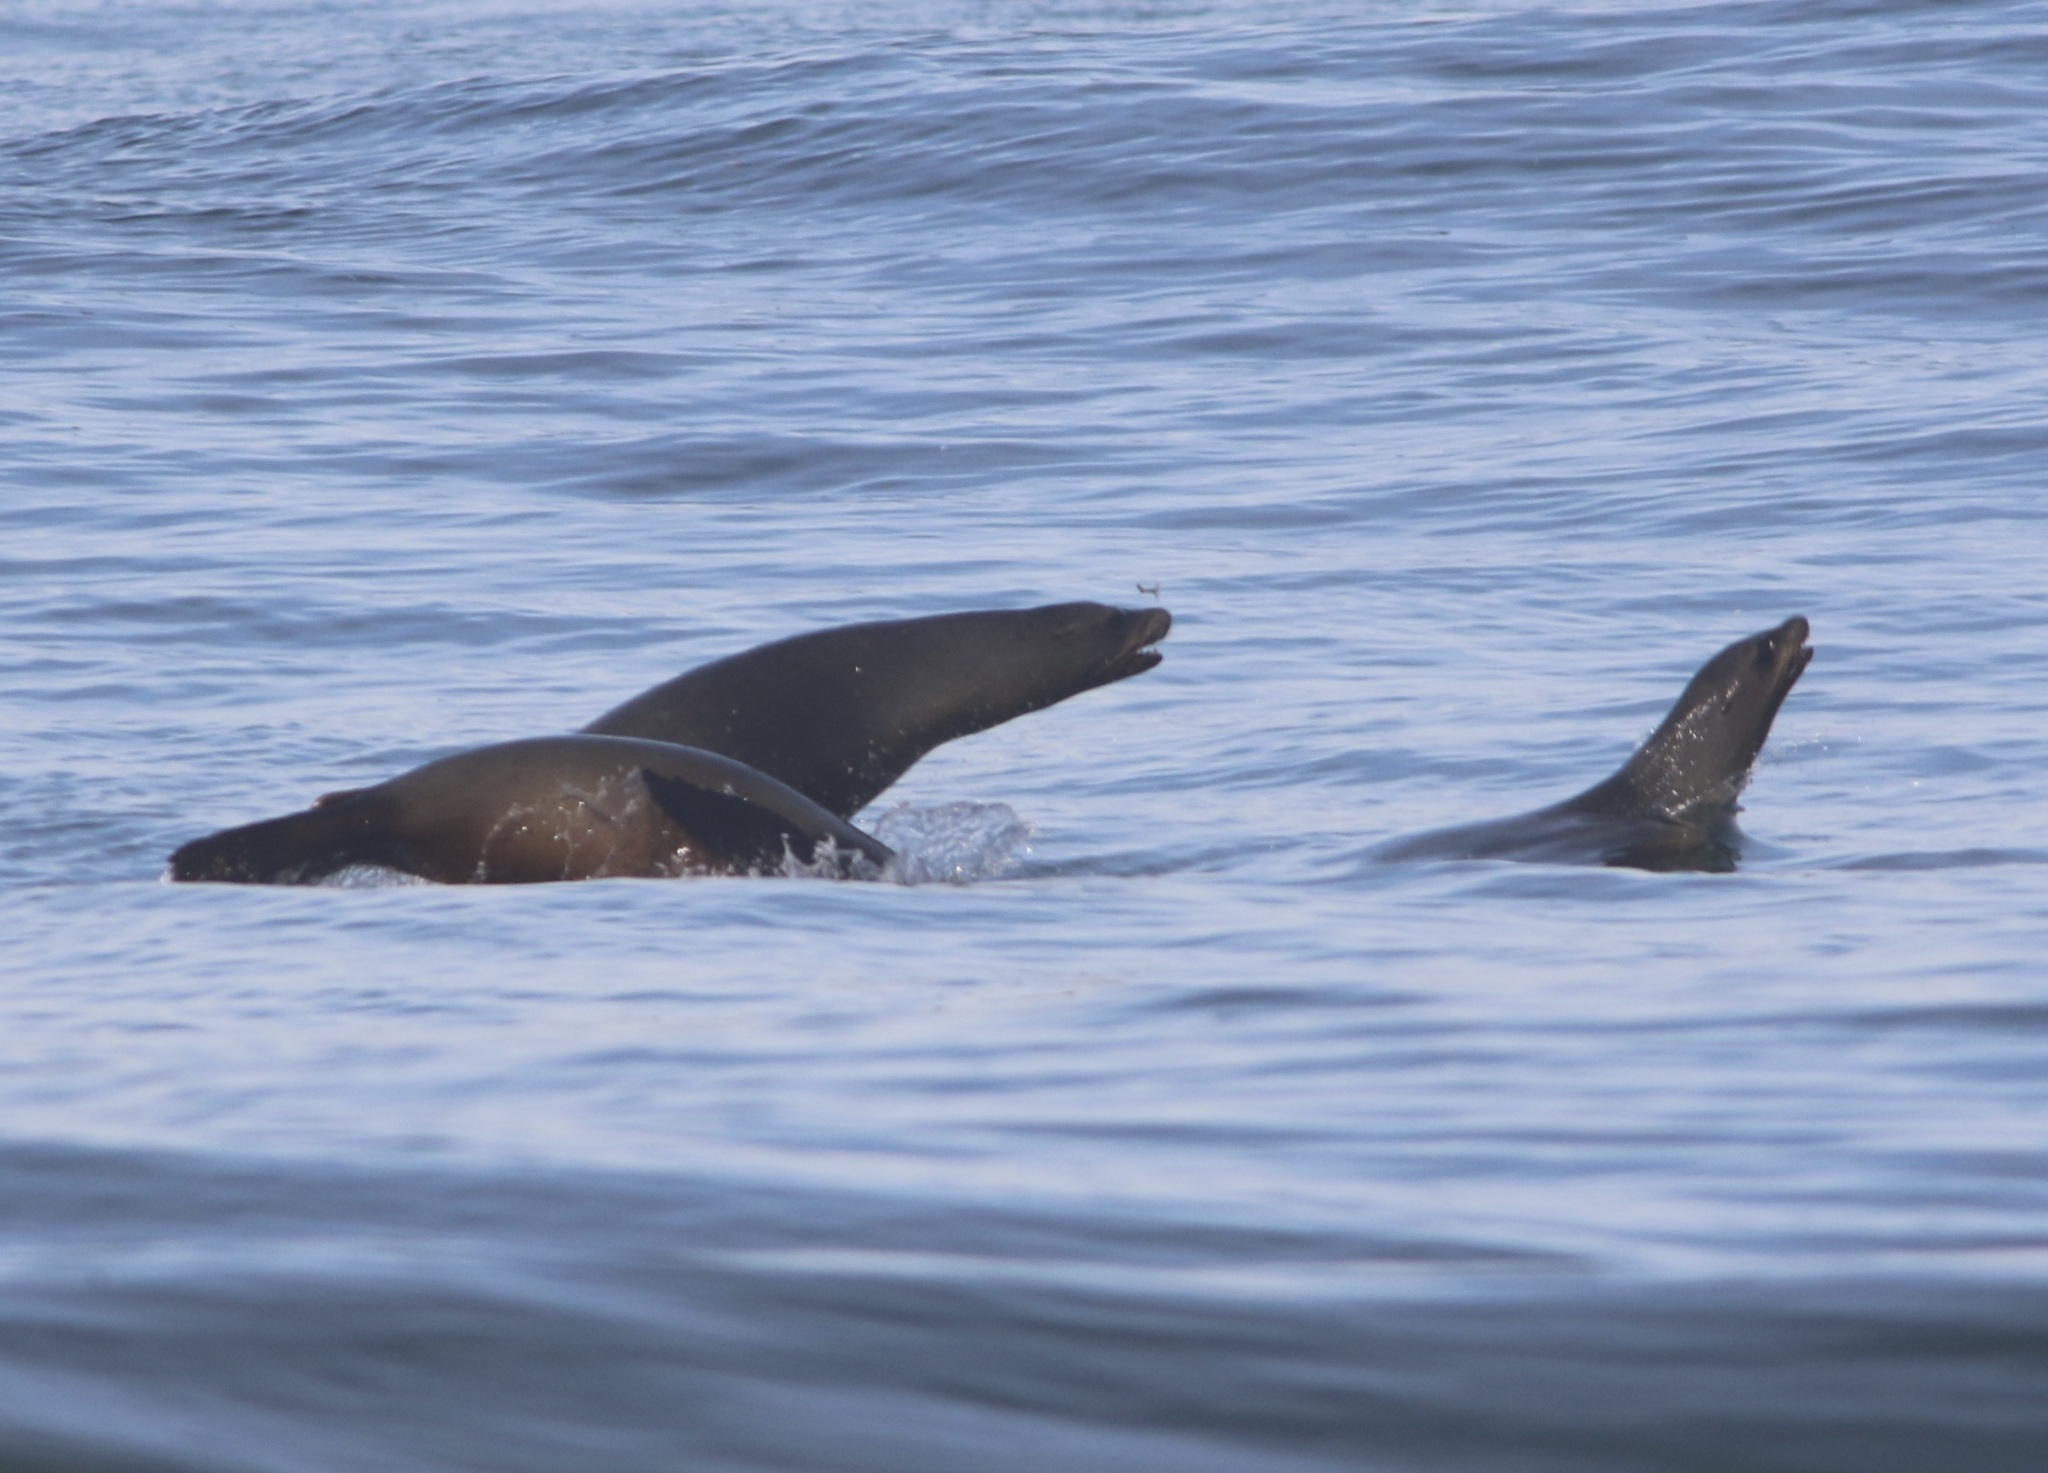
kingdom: Animalia
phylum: Chordata
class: Mammalia
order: Carnivora
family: Otariidae
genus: Zalophus
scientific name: Zalophus californianus
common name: California sea lion
